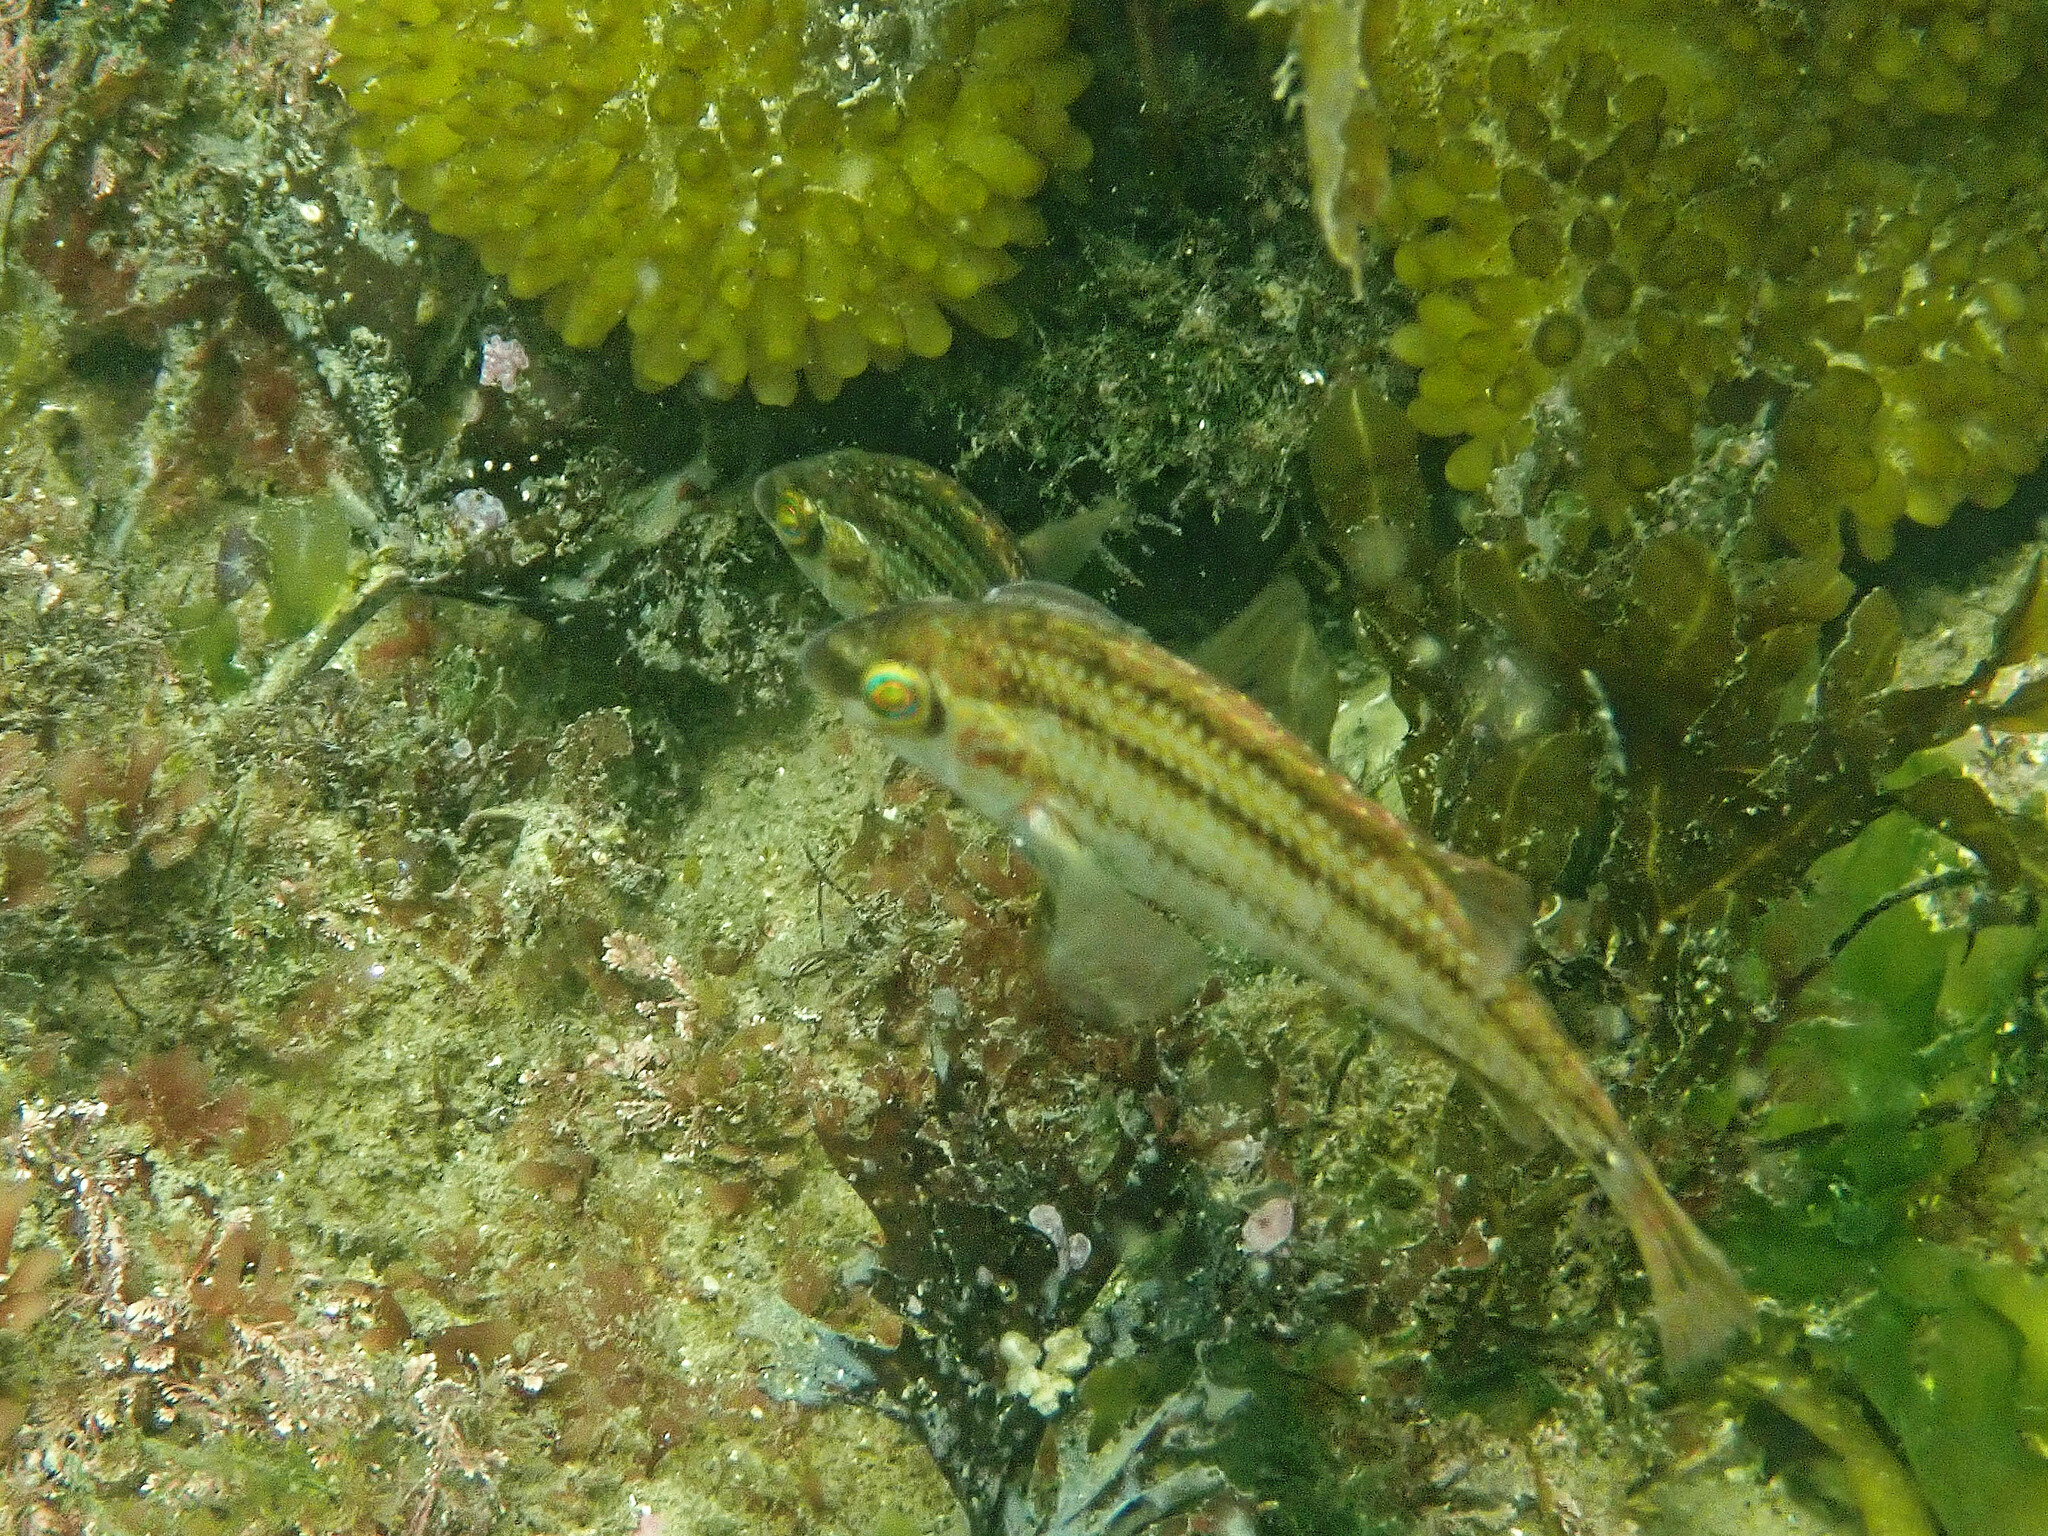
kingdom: Animalia
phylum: Chordata
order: Perciformes
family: Labridae
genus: Symphodus
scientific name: Symphodus melops
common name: Corkwing
